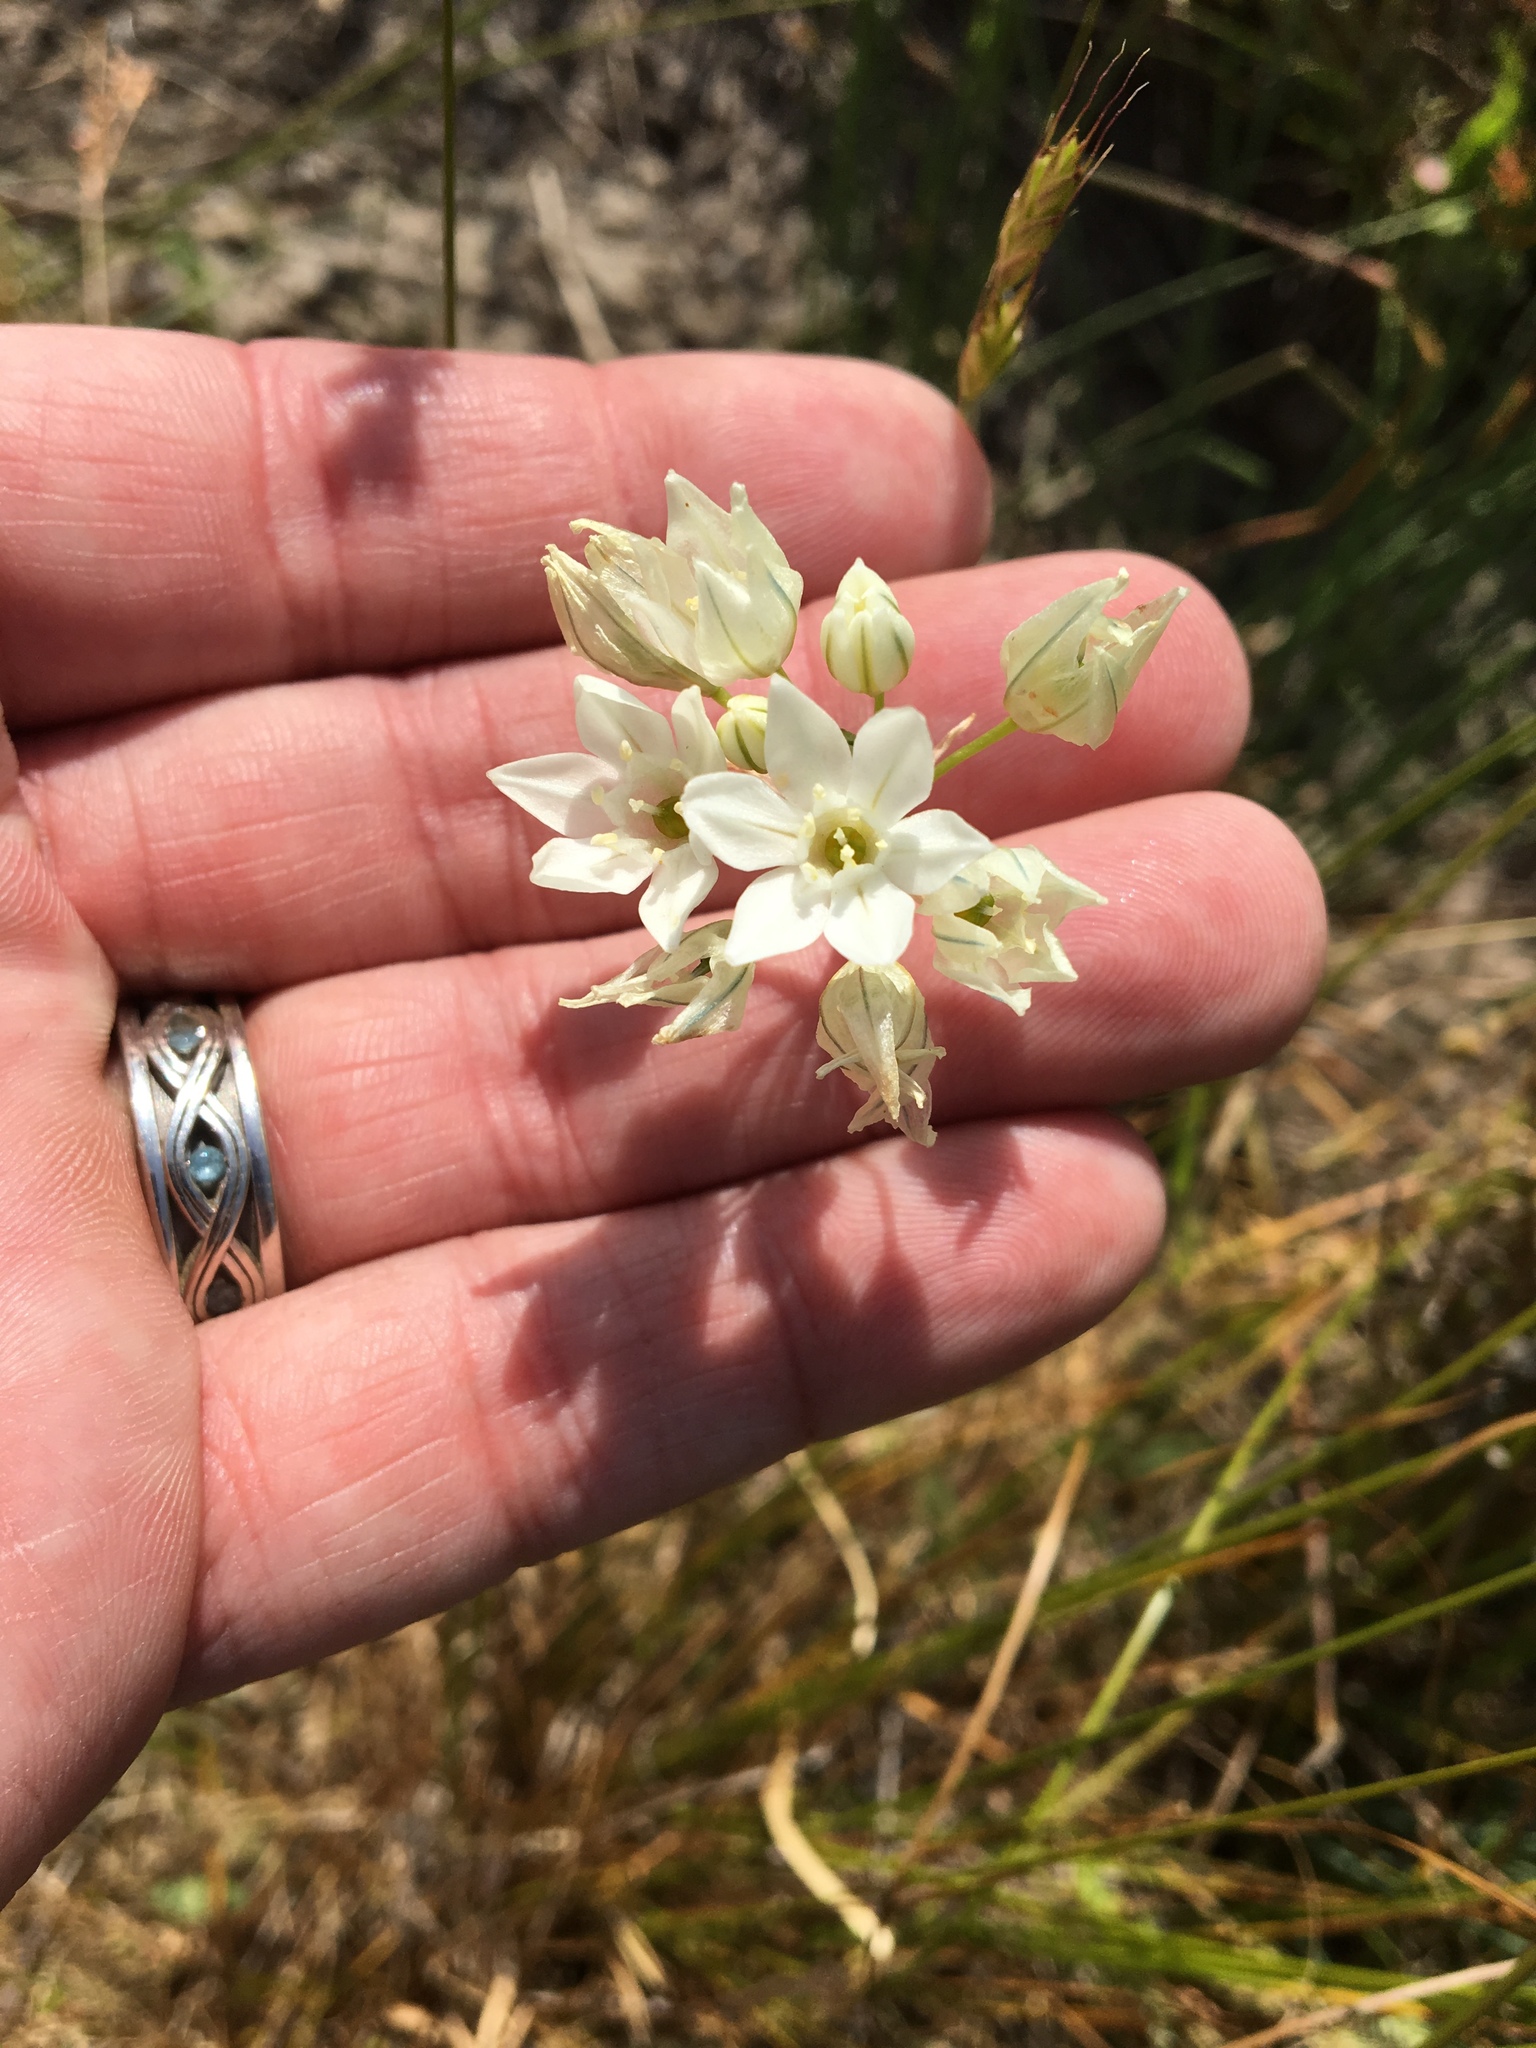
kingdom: Plantae
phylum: Tracheophyta
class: Liliopsida
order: Asparagales
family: Asparagaceae
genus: Triteleia
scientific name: Triteleia hyacinthina
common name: White brodiaea
